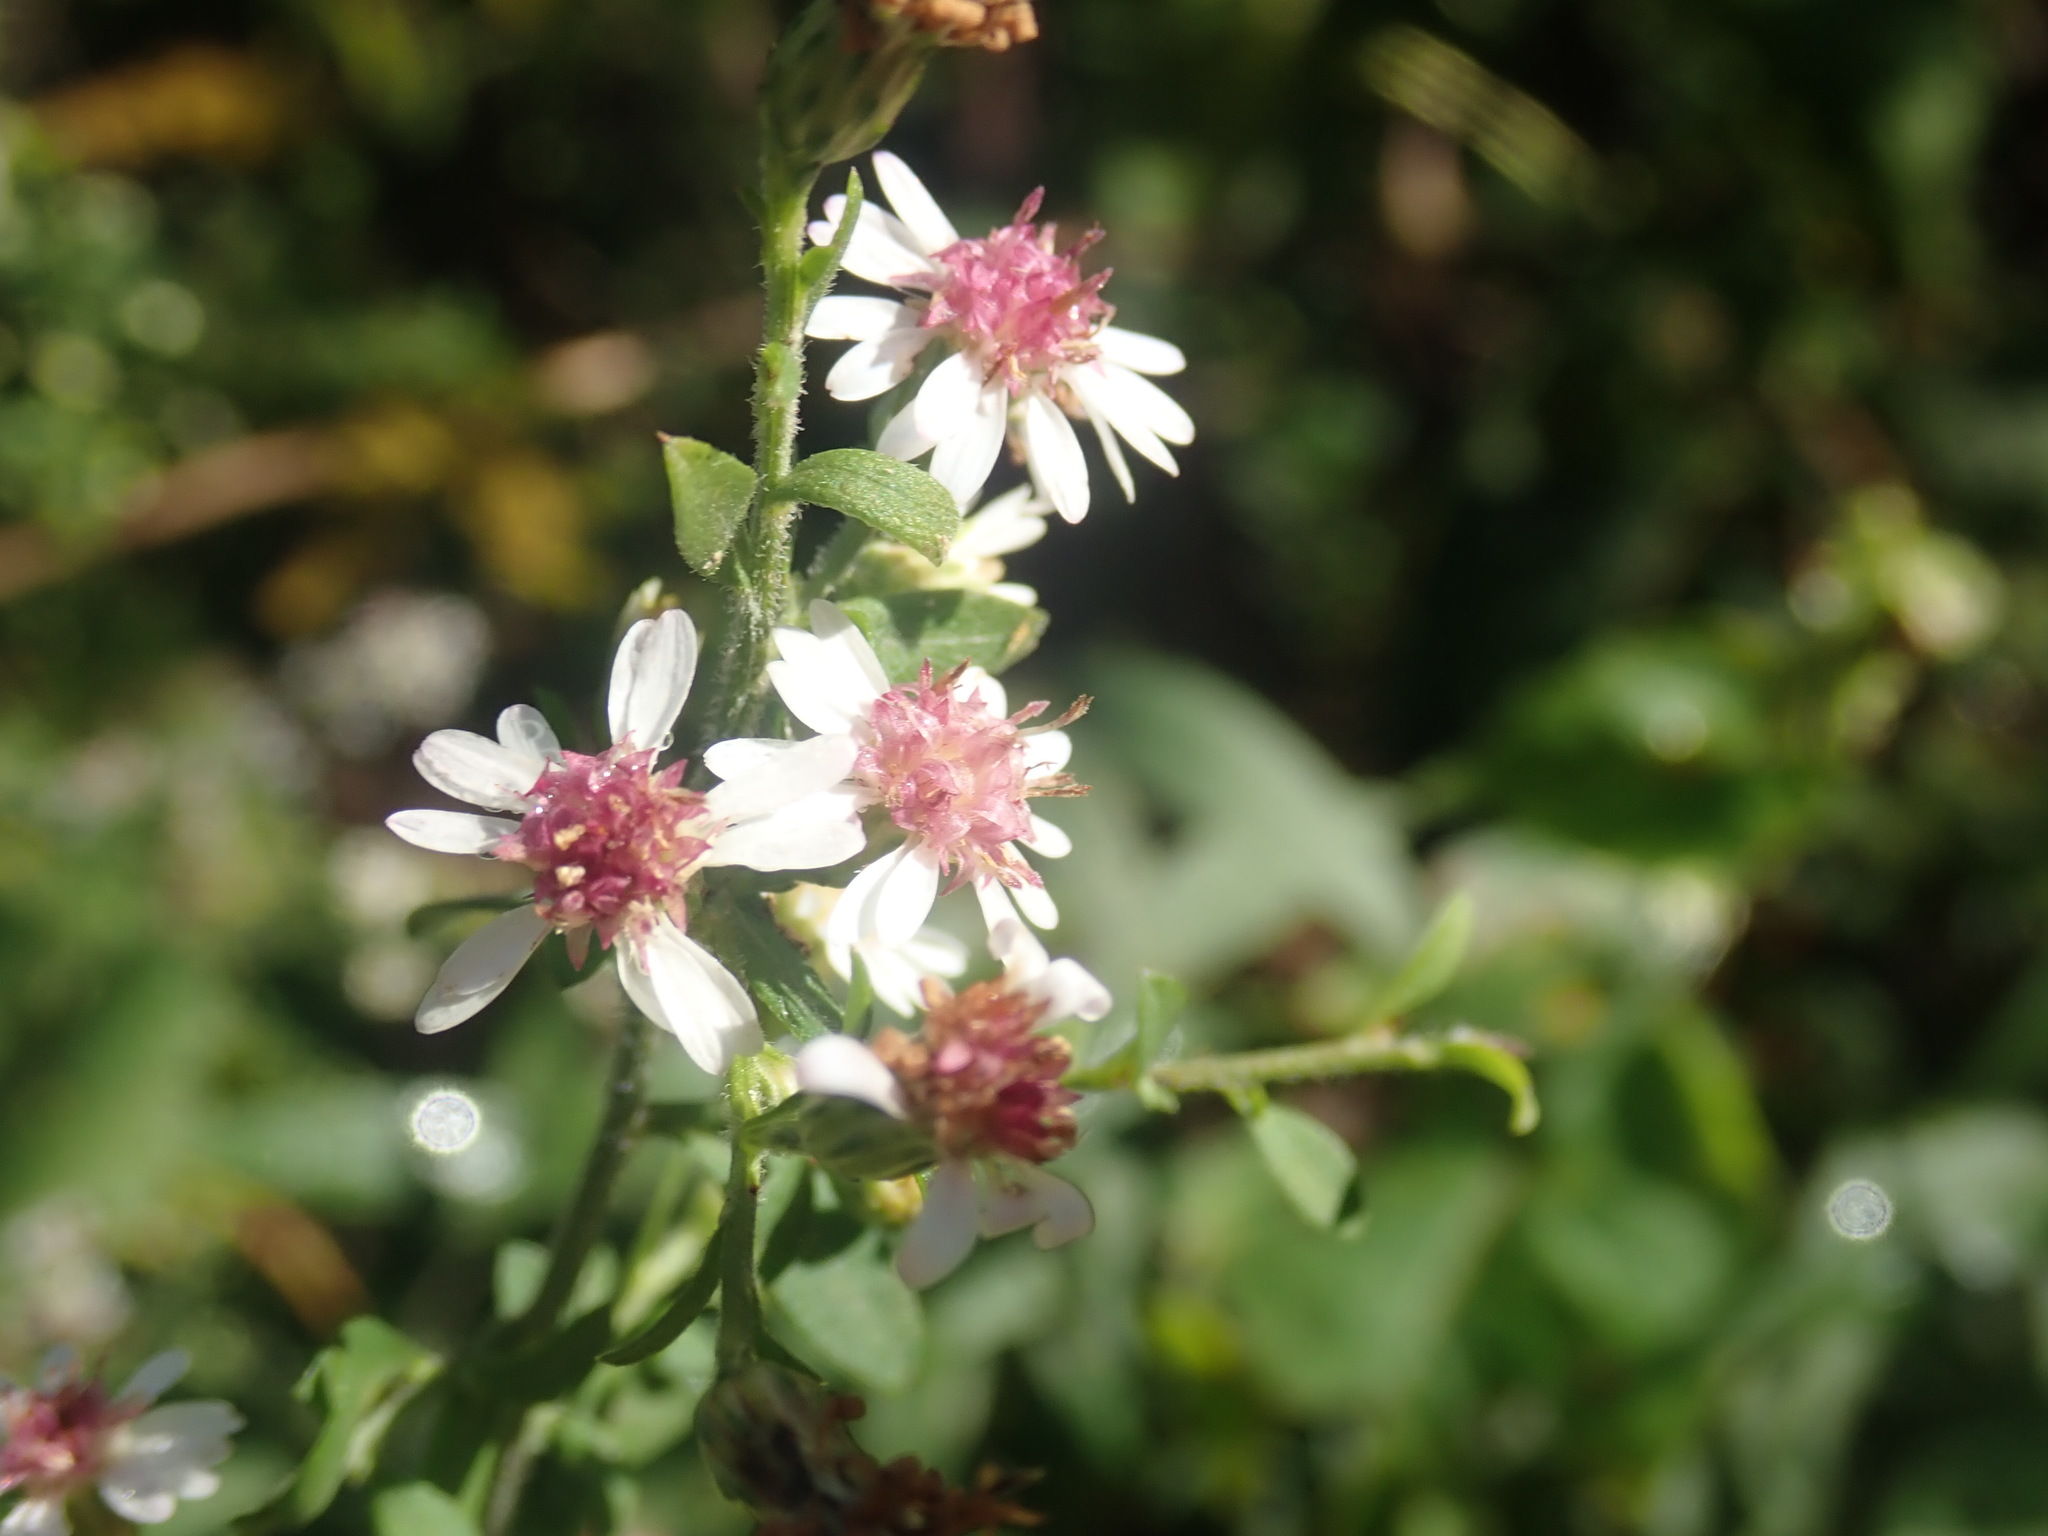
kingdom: Plantae
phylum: Tracheophyta
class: Magnoliopsida
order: Asterales
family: Asteraceae
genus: Symphyotrichum
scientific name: Symphyotrichum lateriflorum
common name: Calico aster
